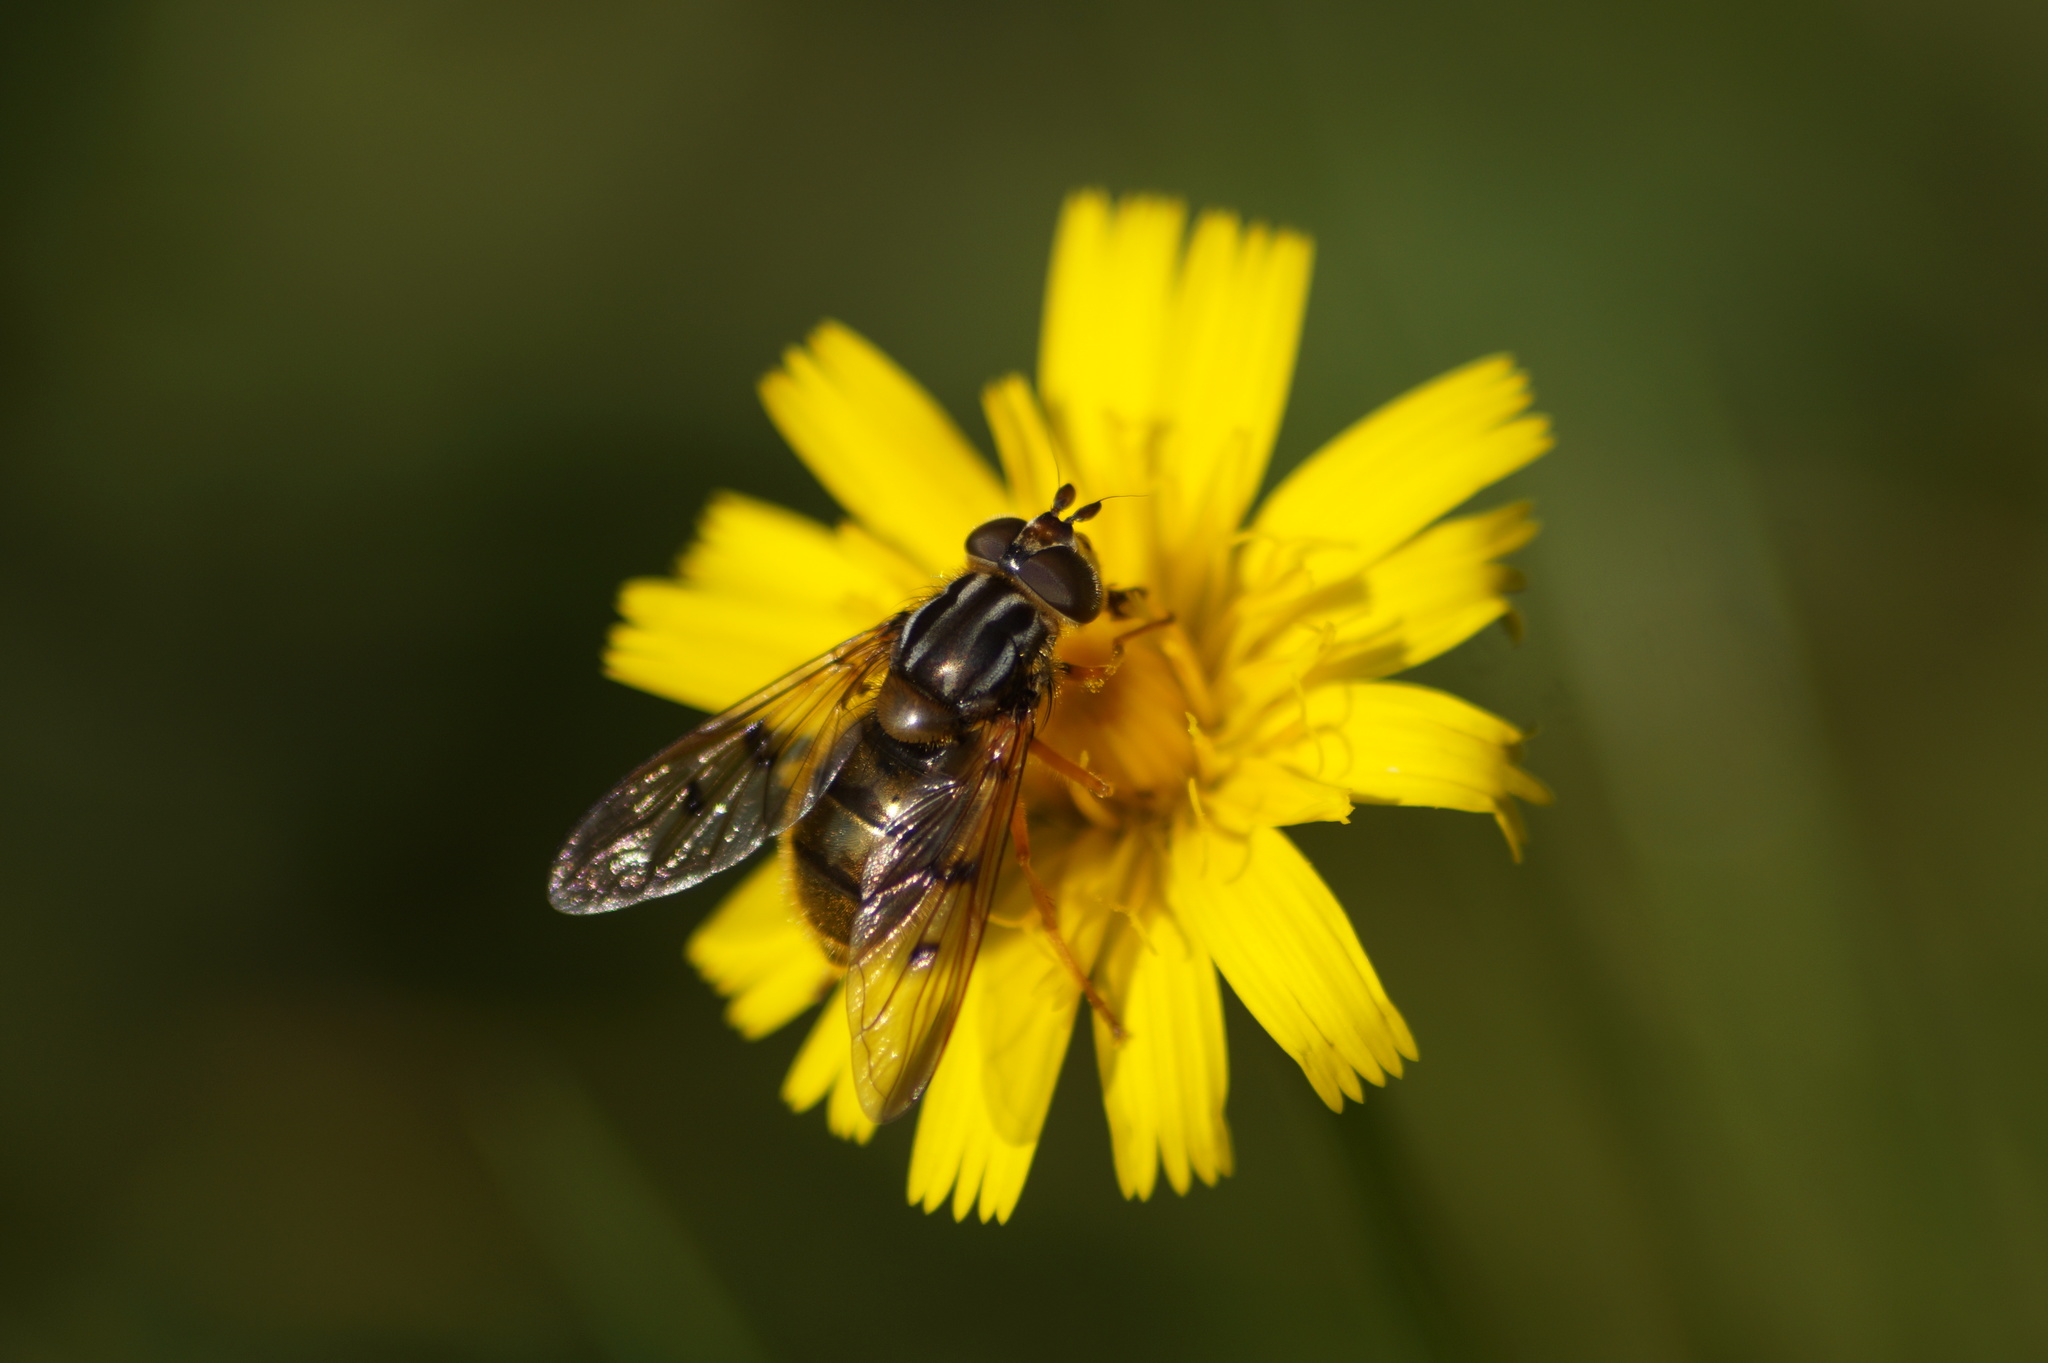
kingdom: Animalia
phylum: Arthropoda
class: Insecta
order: Diptera
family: Syrphidae
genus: Ferdinandea
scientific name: Ferdinandea cuprea
